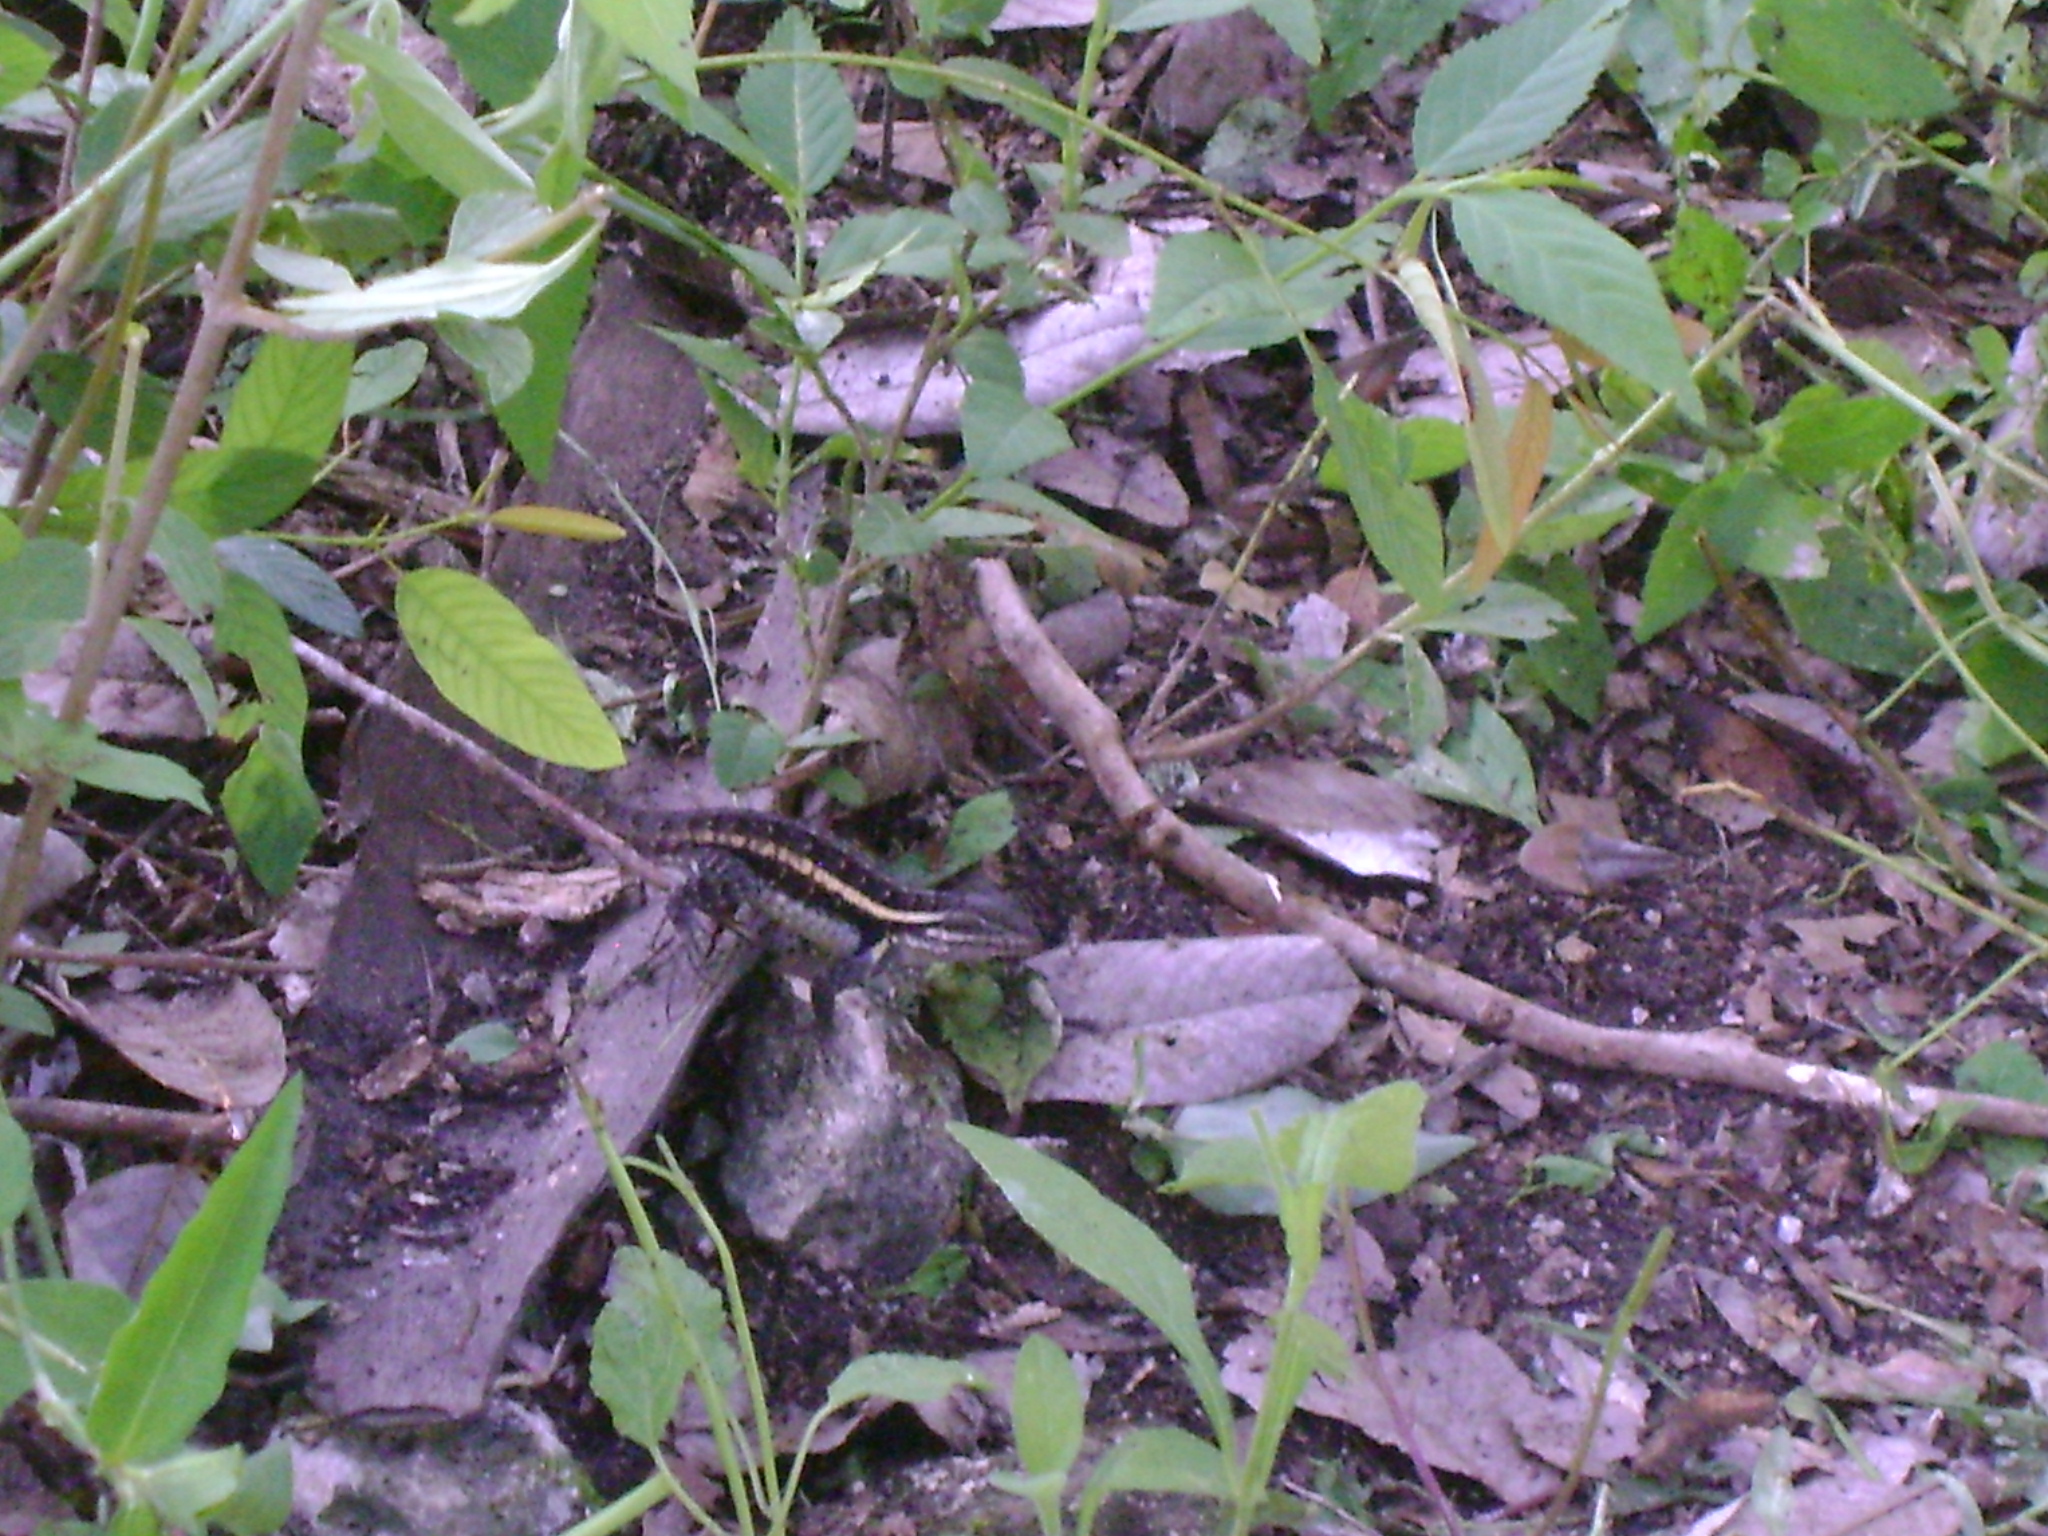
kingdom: Animalia
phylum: Chordata
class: Squamata
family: Phrynosomatidae
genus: Sceloporus
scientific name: Sceloporus variabilis
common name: Rosebelly lizard
